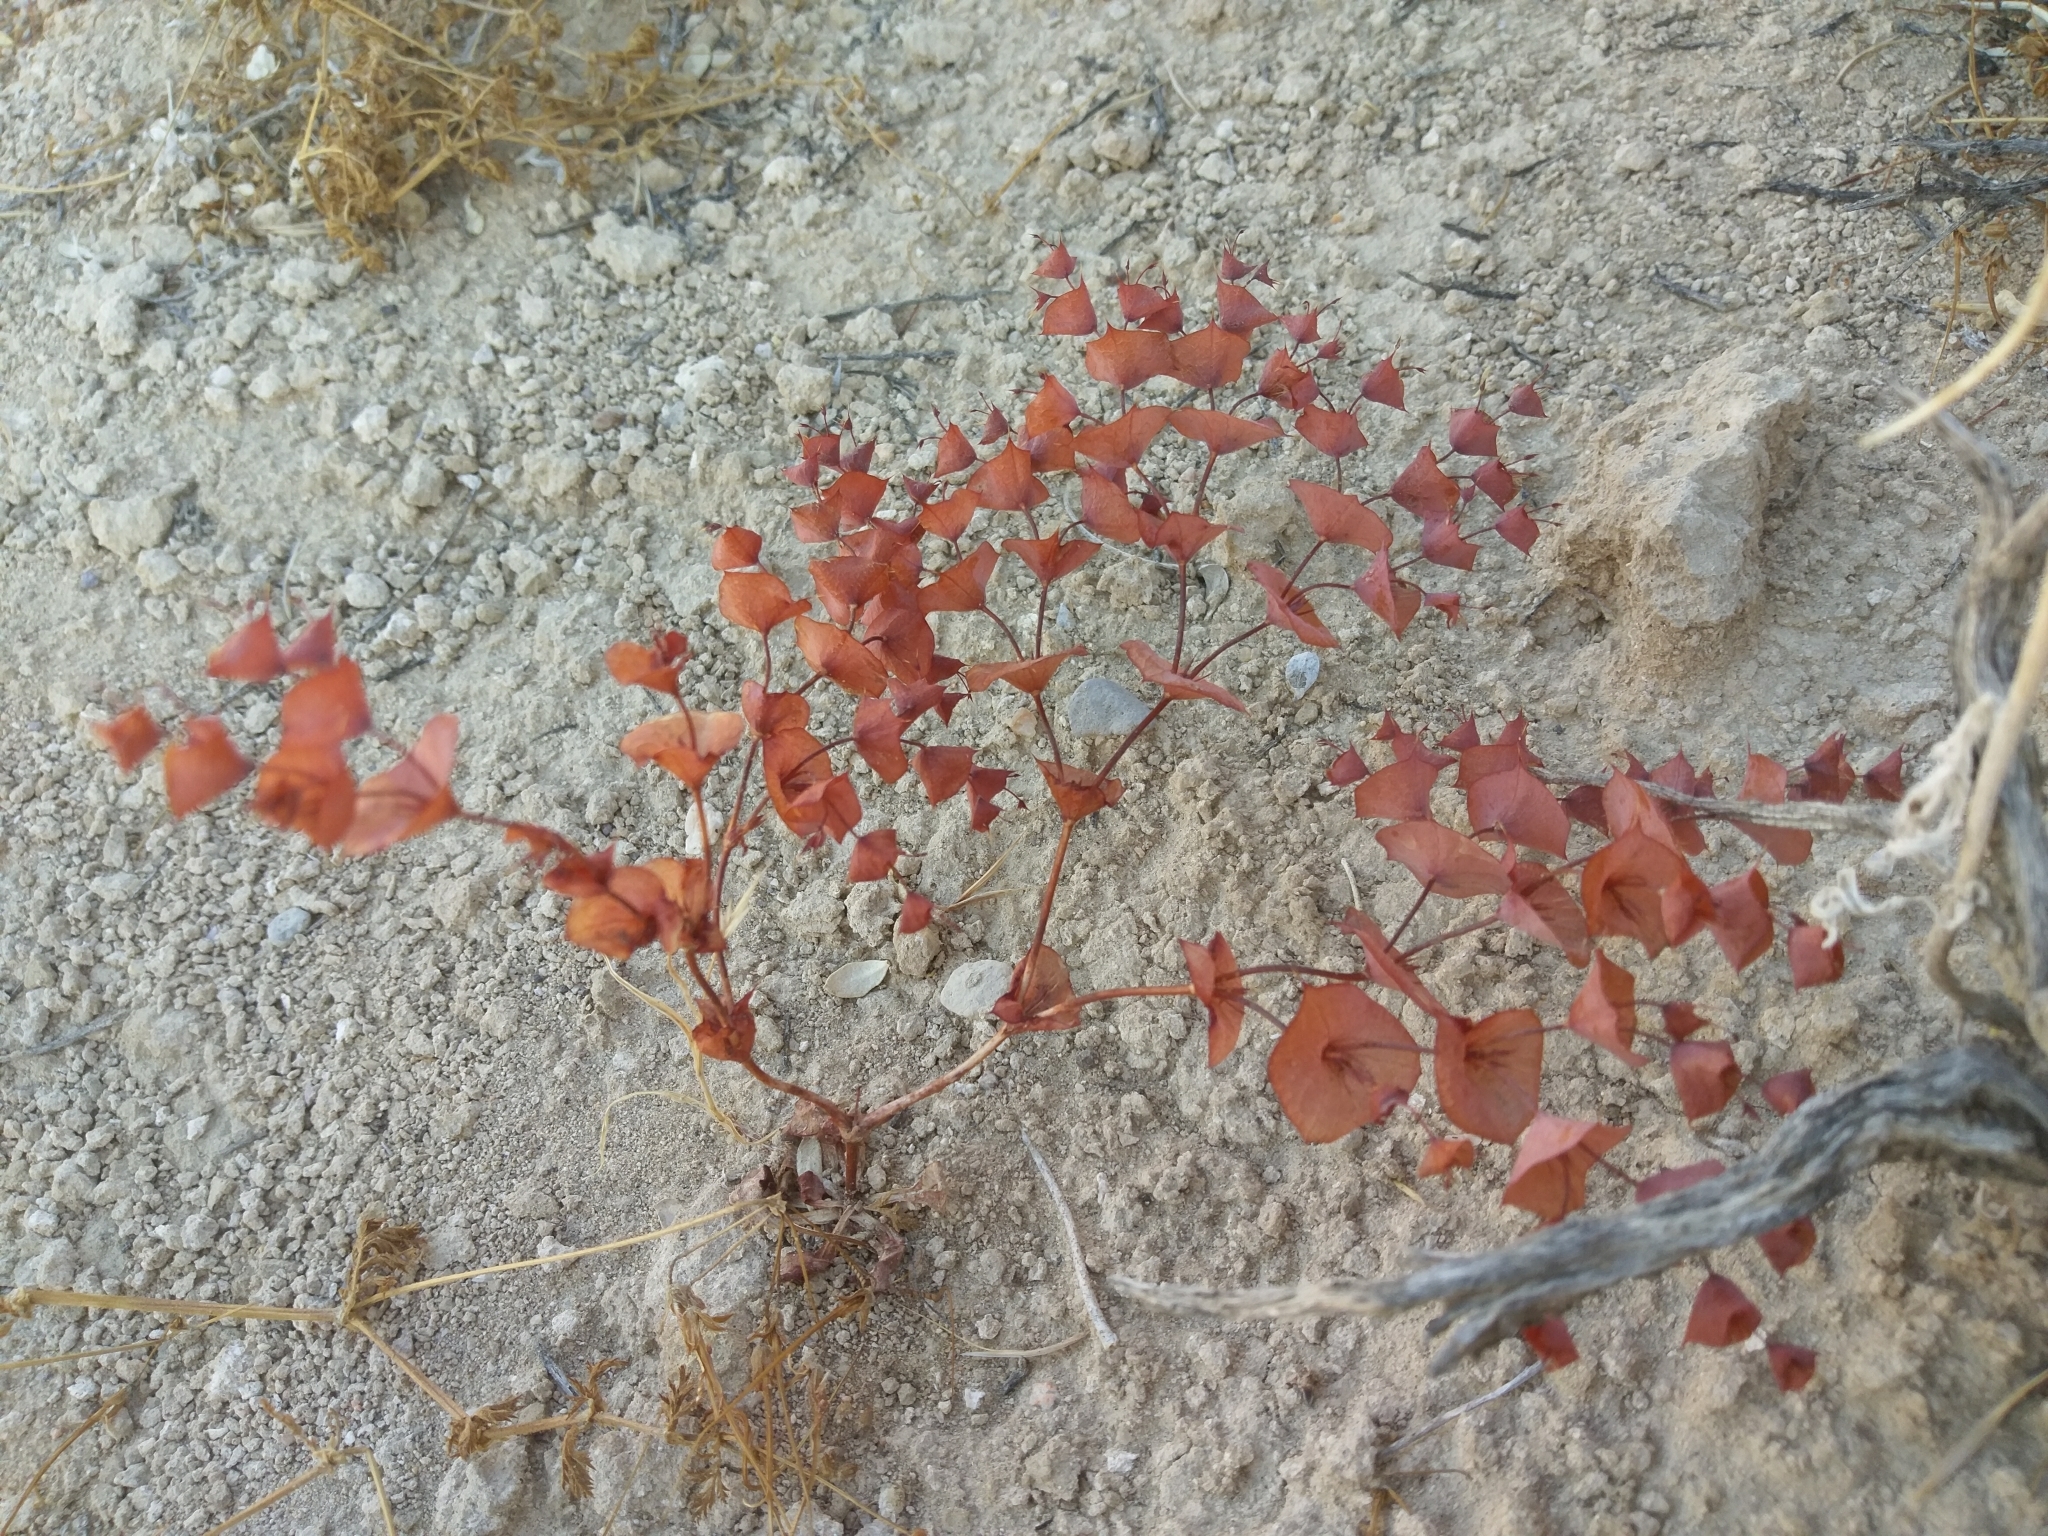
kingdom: Plantae
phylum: Tracheophyta
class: Magnoliopsida
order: Caryophyllales
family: Polygonaceae
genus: Oxytheca
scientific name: Oxytheca perfoliata
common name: Round-leaf puncturebract
